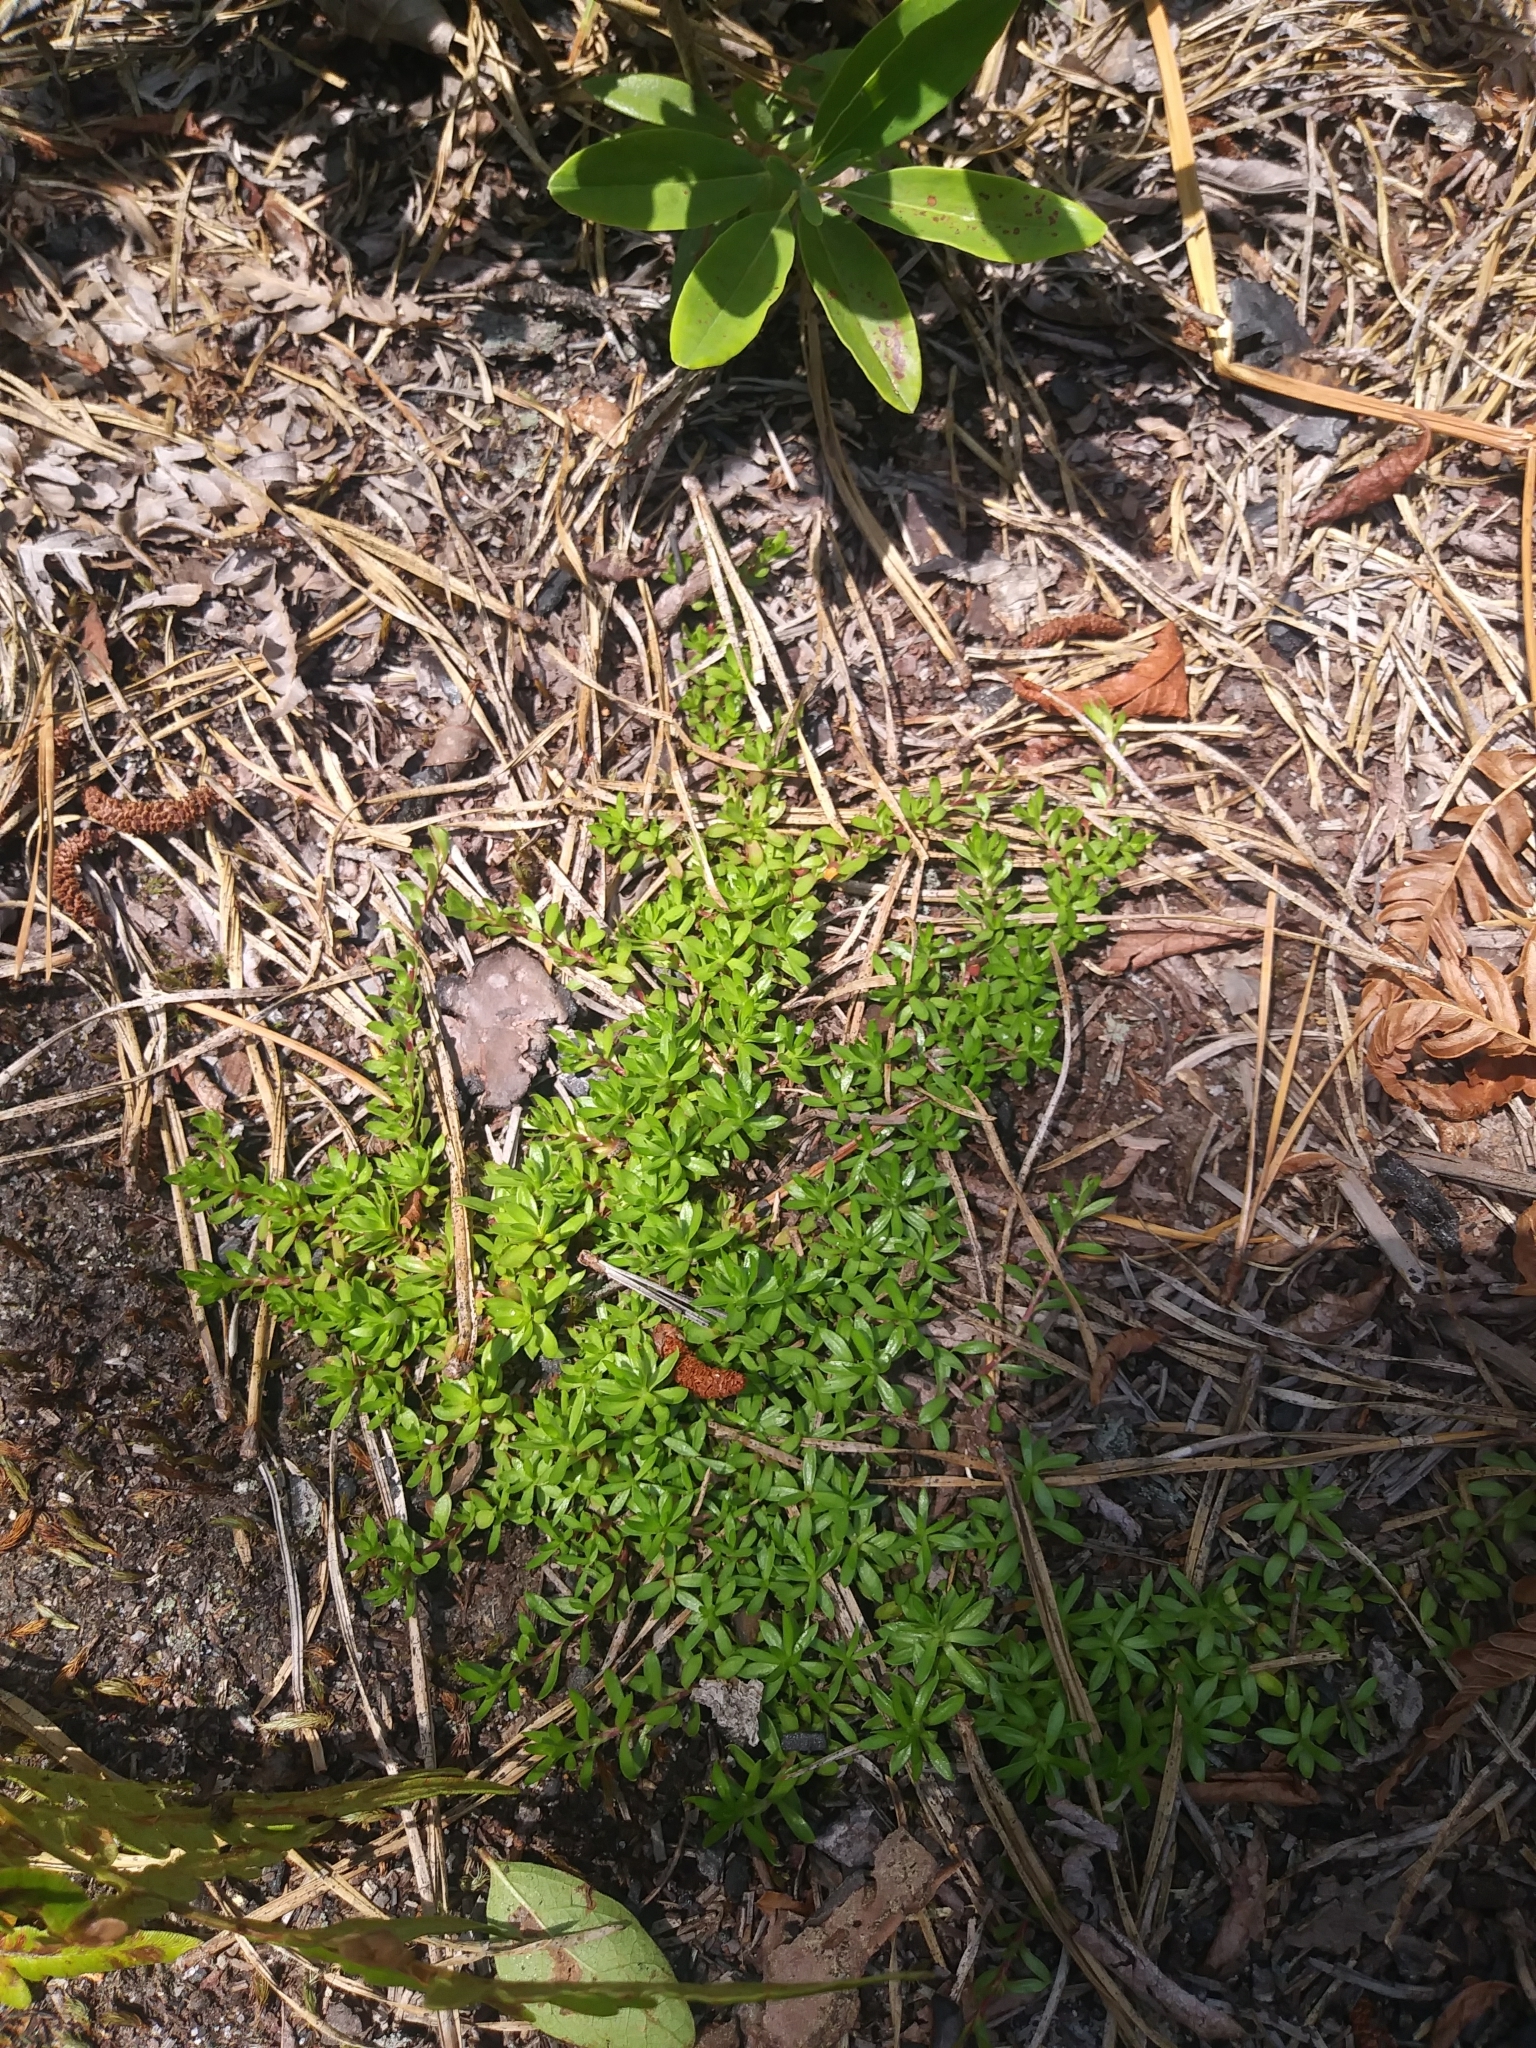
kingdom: Plantae
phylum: Tracheophyta
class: Magnoliopsida
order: Ericales
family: Diapensiaceae
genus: Pyxidanthera
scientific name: Pyxidanthera barbulata
